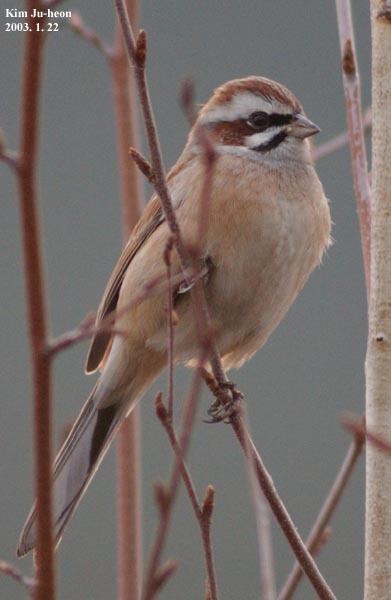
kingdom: Animalia
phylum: Chordata
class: Aves
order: Passeriformes
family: Emberizidae
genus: Emberiza
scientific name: Emberiza cioides
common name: Meadow bunting
